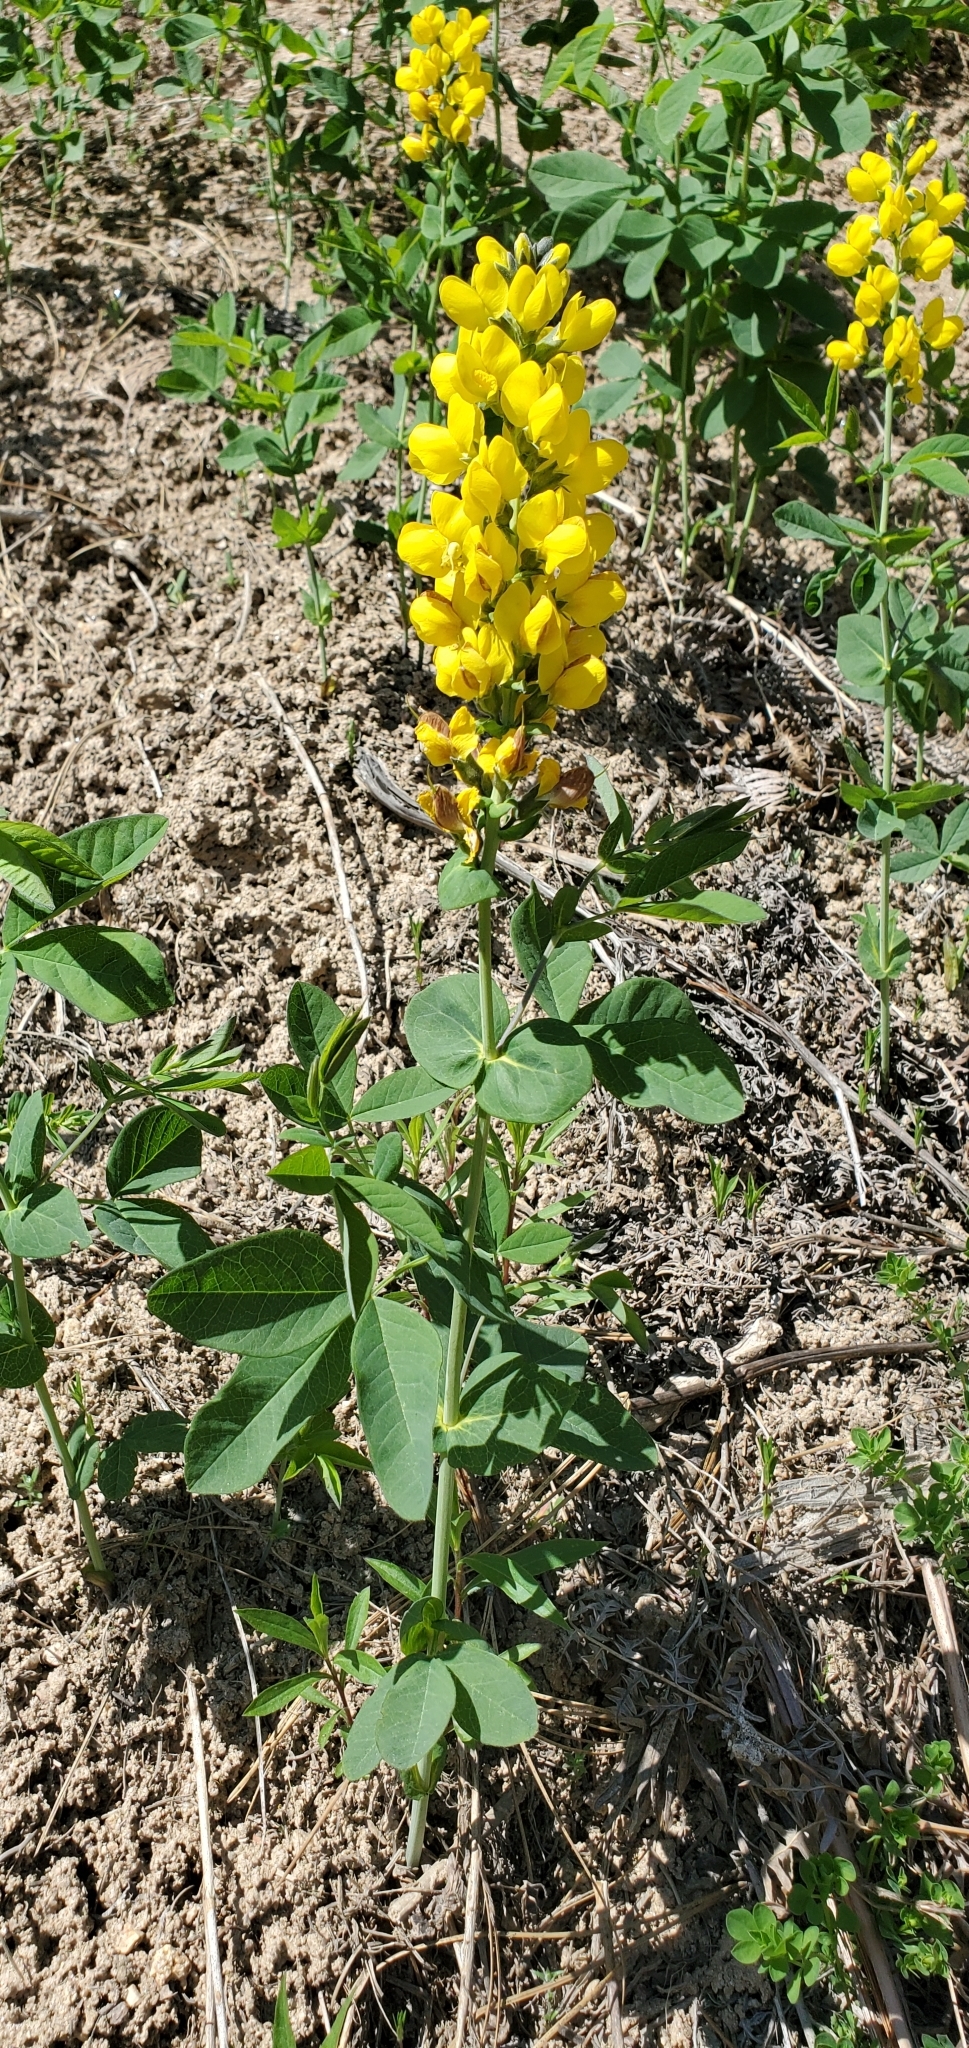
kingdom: Plantae
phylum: Tracheophyta
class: Magnoliopsida
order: Fabales
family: Fabaceae
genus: Thermopsis
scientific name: Thermopsis montana
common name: False lupin
